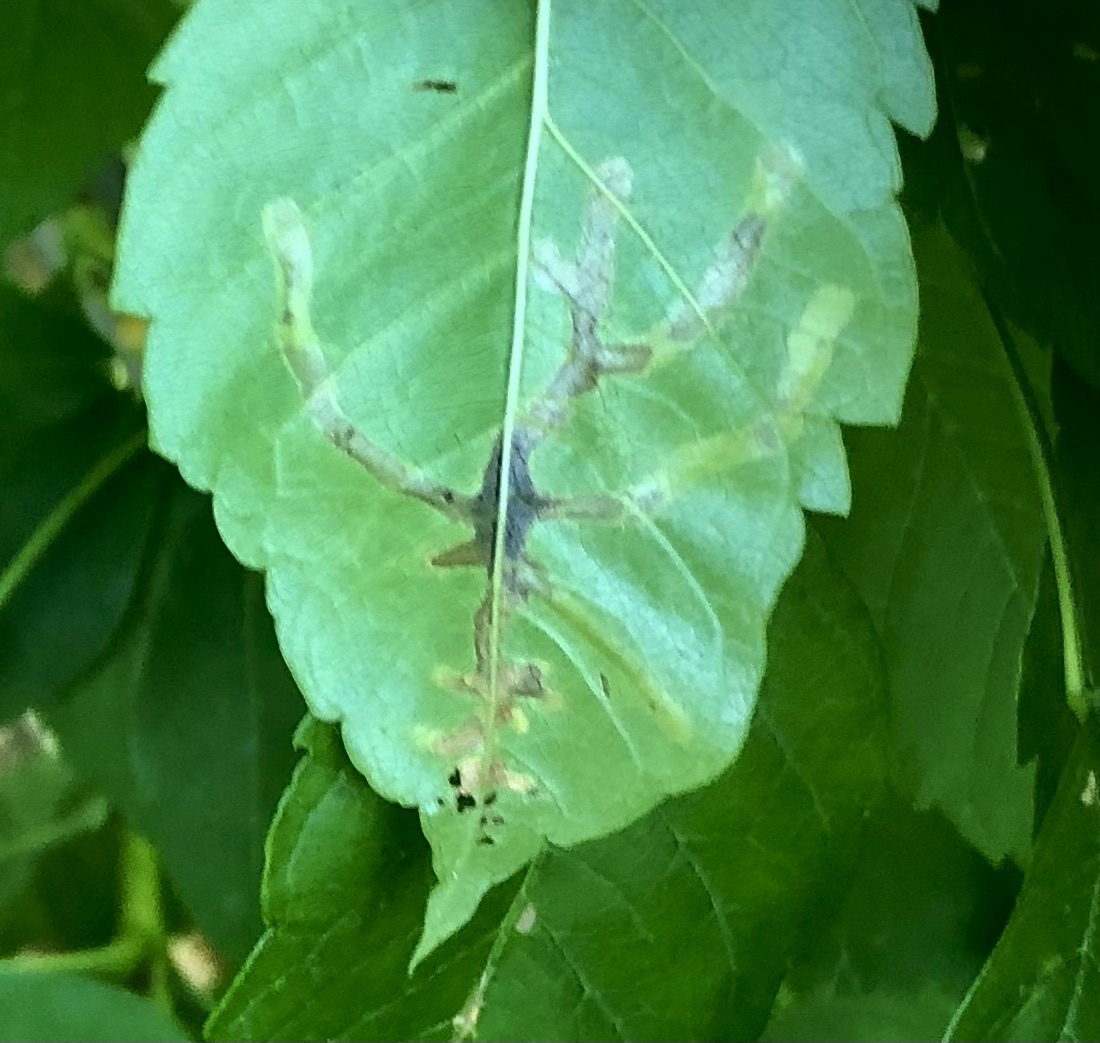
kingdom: Animalia
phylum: Arthropoda
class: Insecta
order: Coleoptera
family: Chrysomelidae
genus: Octotoma
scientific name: Octotoma plicatula
